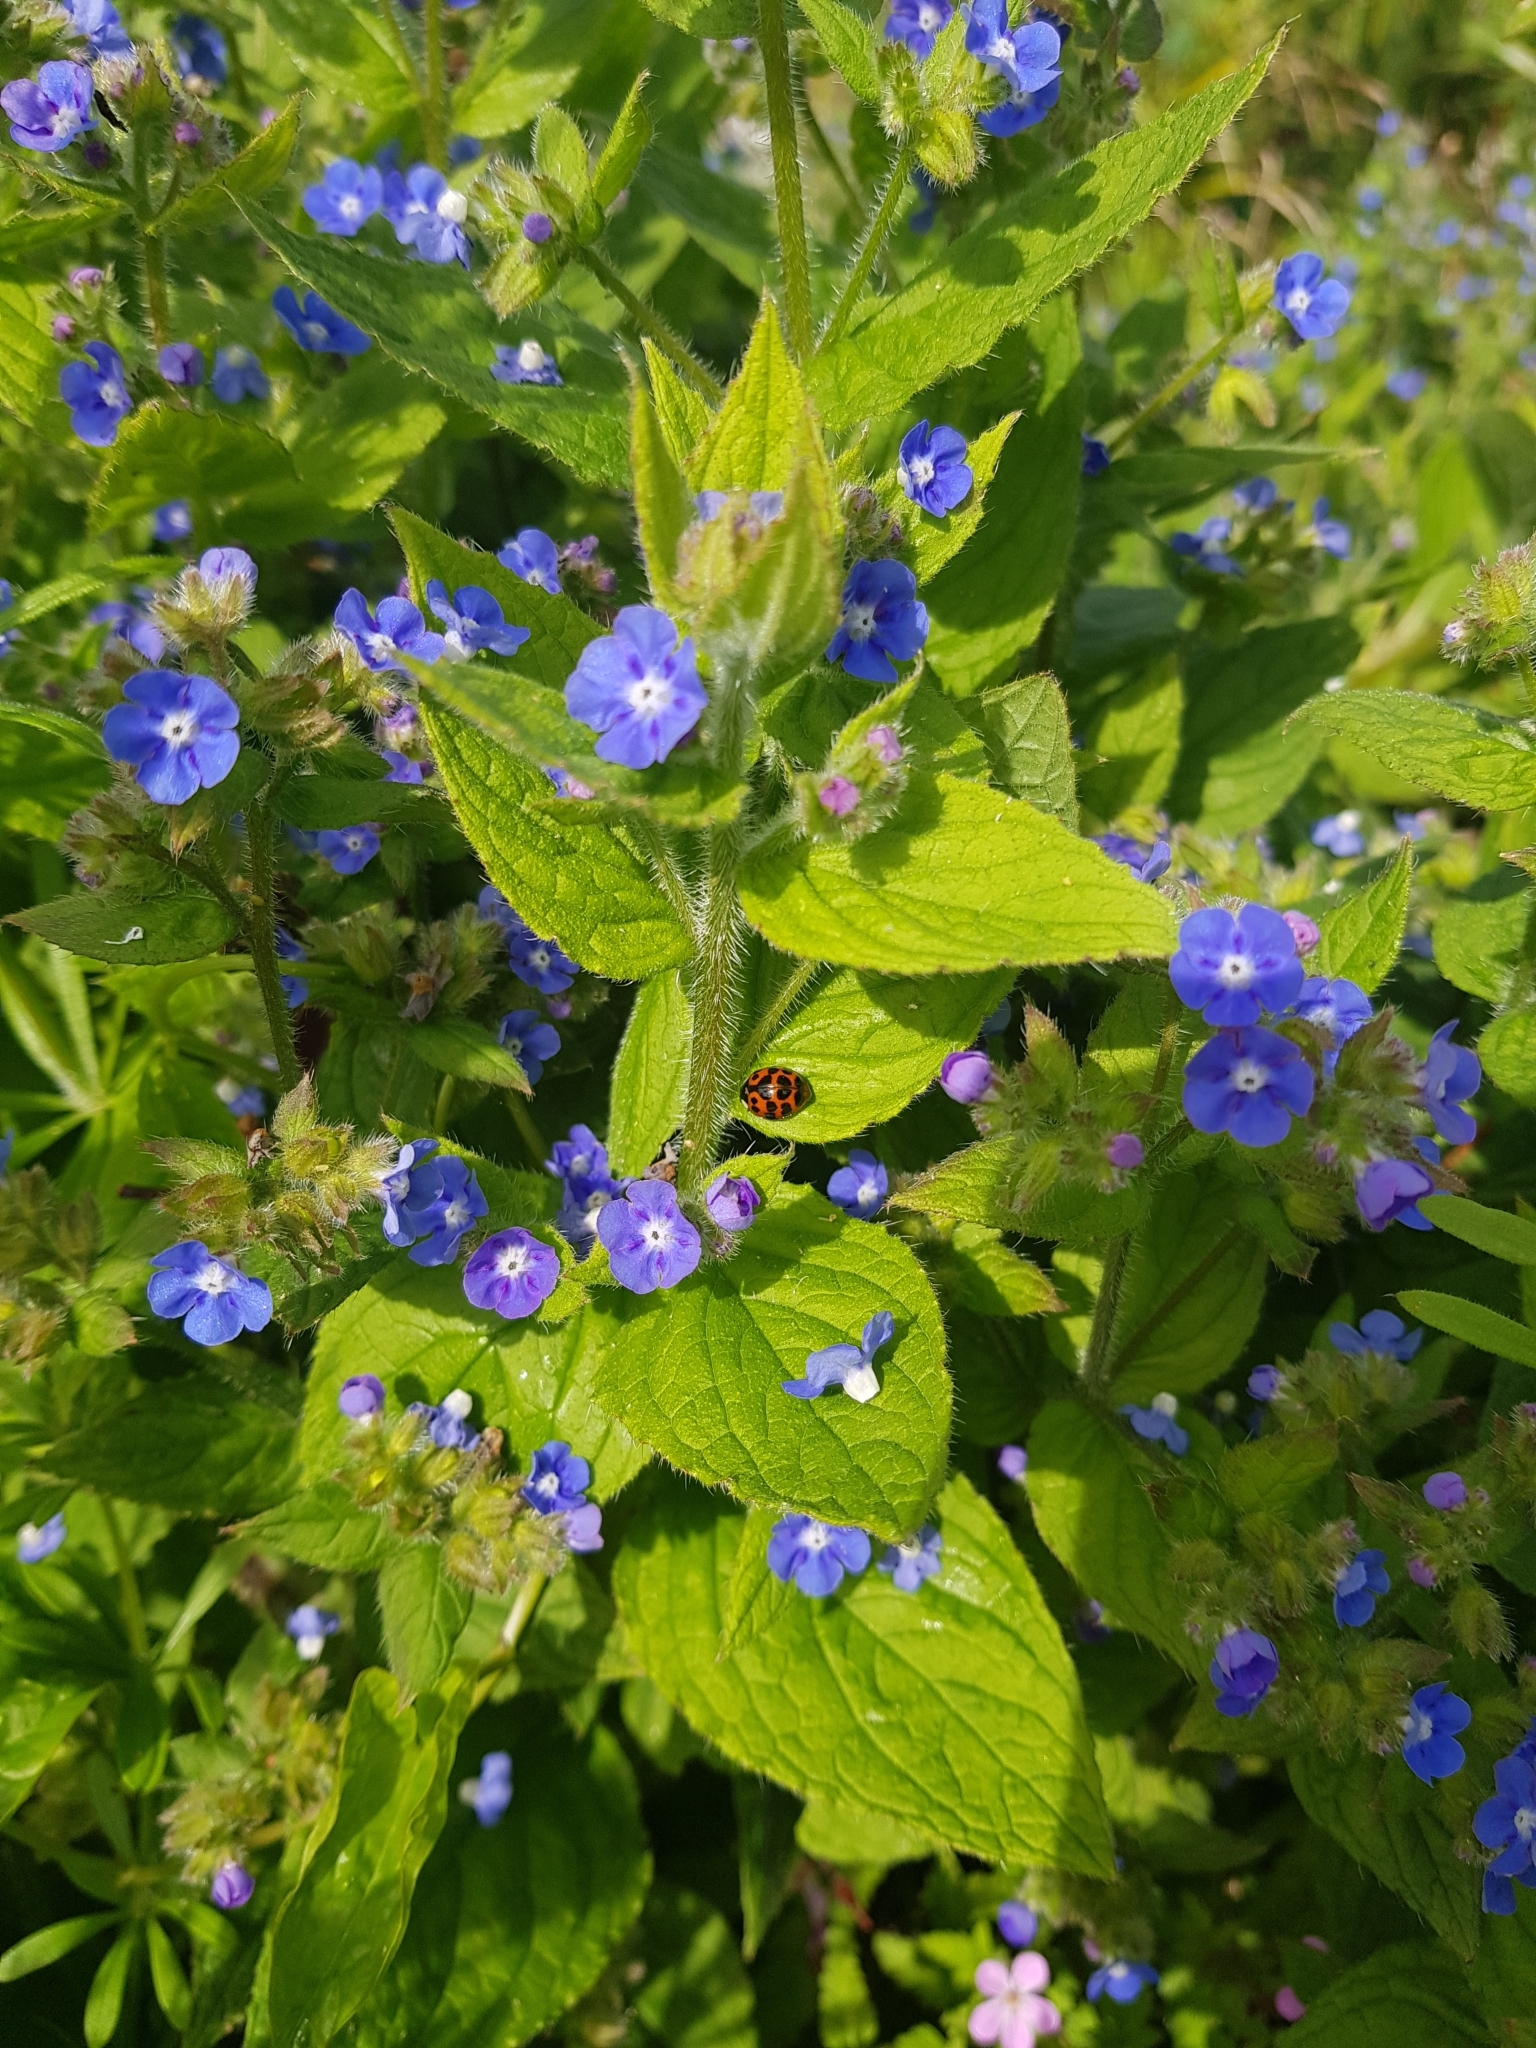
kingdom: Animalia
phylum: Arthropoda
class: Insecta
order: Coleoptera
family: Coccinellidae
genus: Harmonia
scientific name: Harmonia axyridis
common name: Harlequin ladybird
